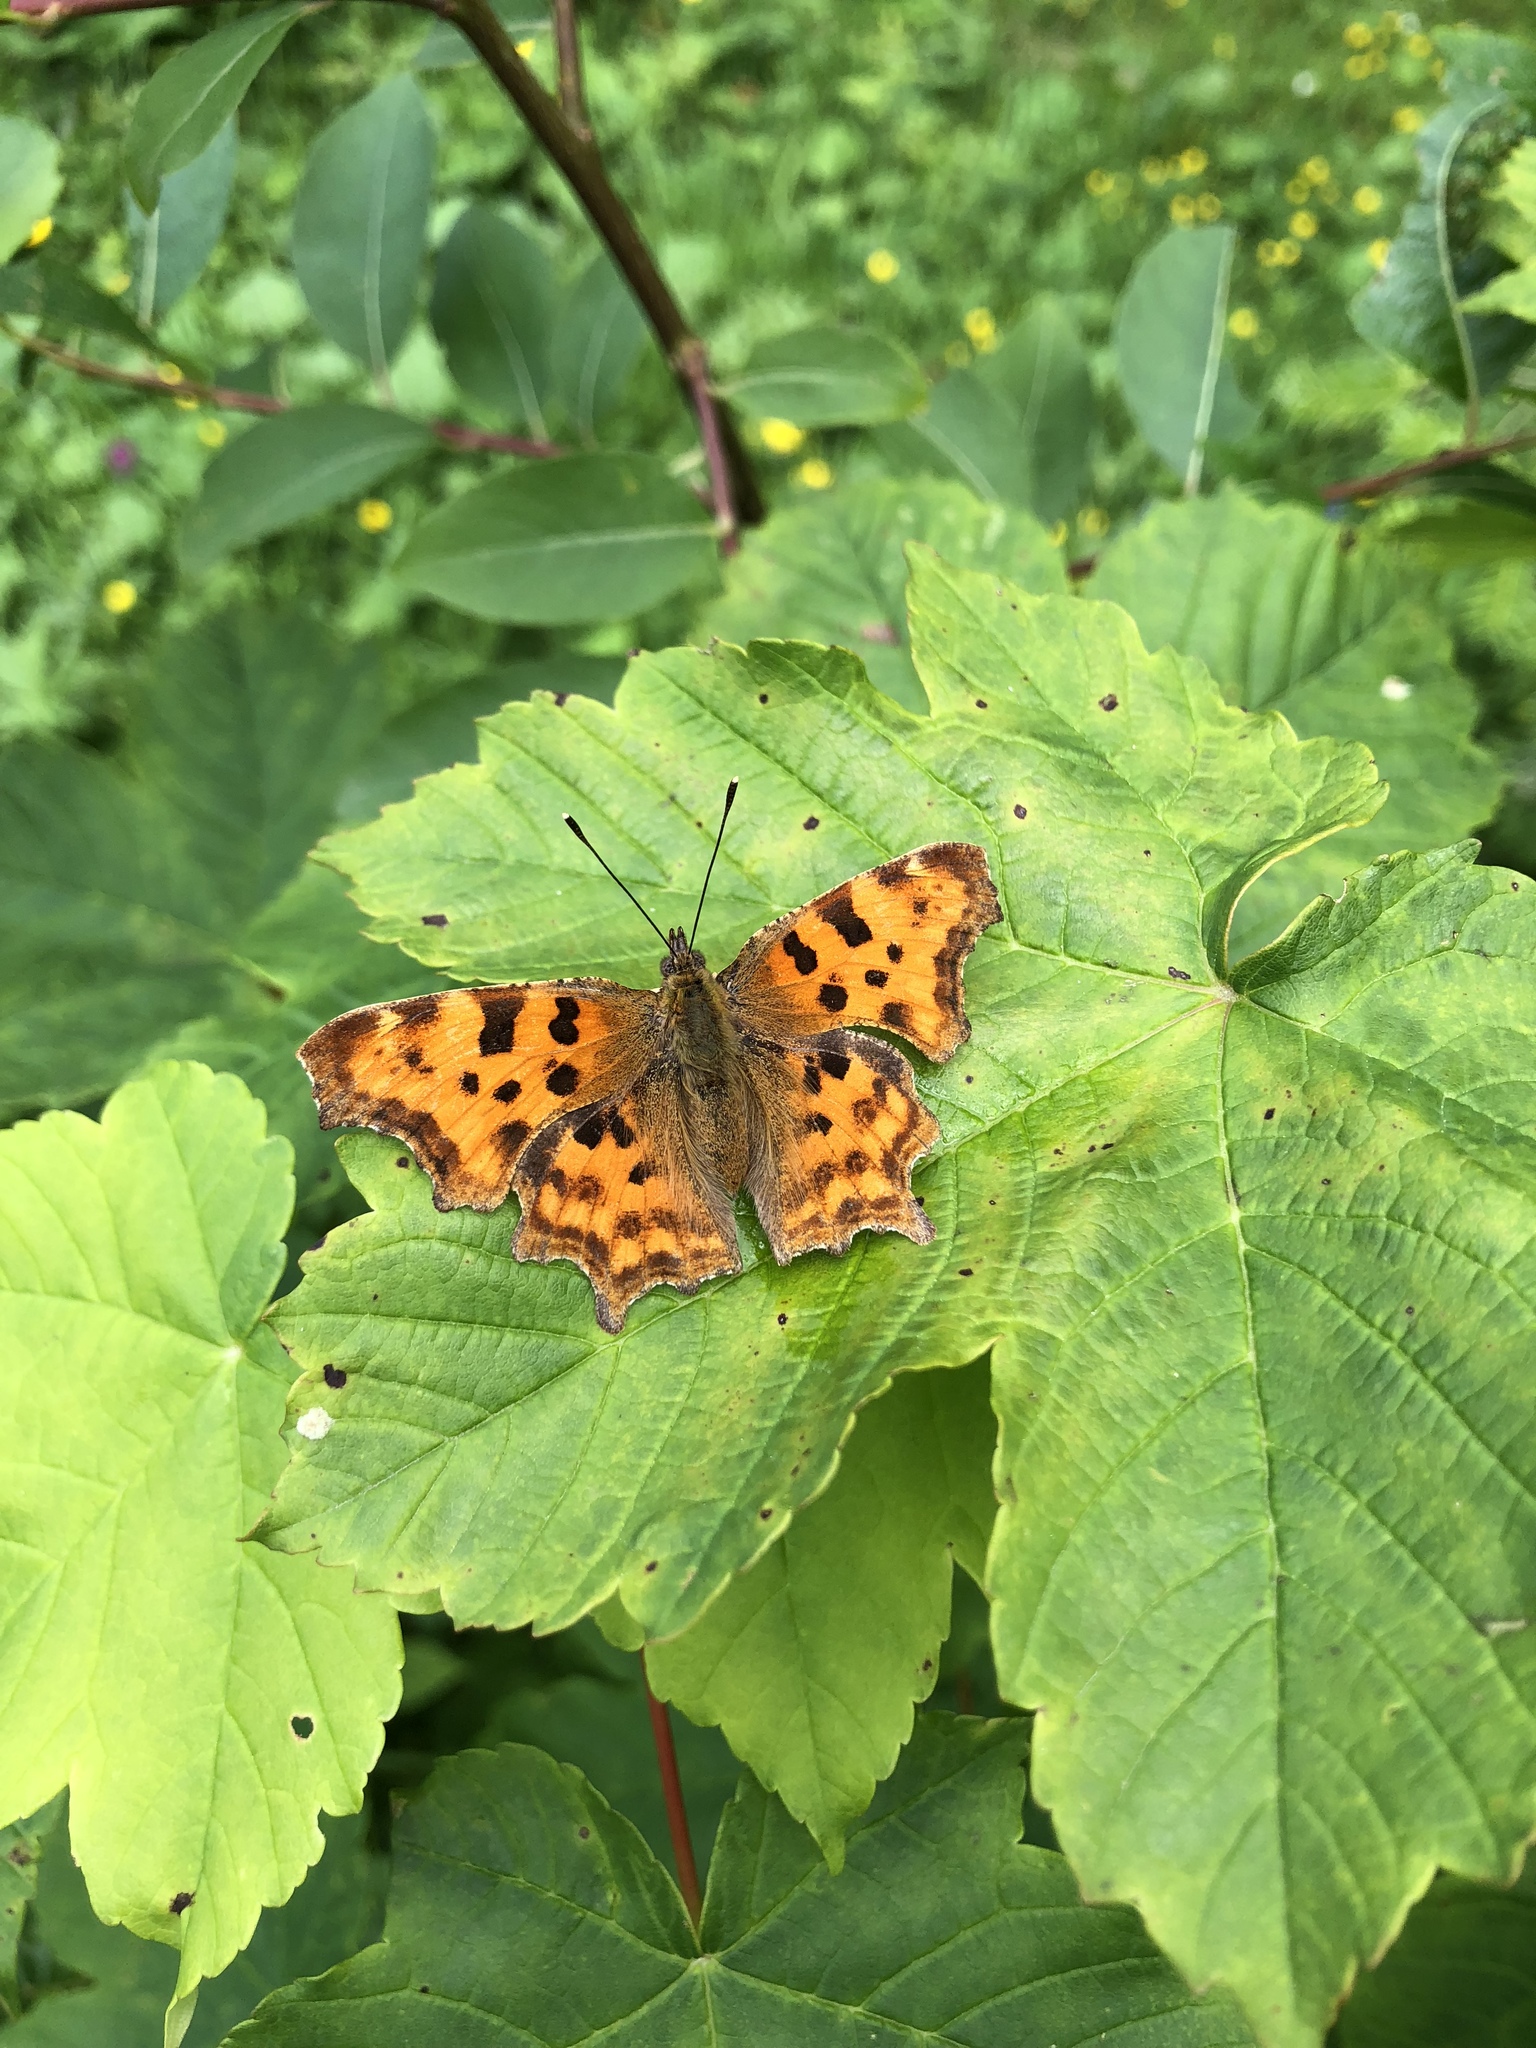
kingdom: Animalia
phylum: Arthropoda
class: Insecta
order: Lepidoptera
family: Nymphalidae
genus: Polygonia
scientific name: Polygonia c-album
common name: Comma
